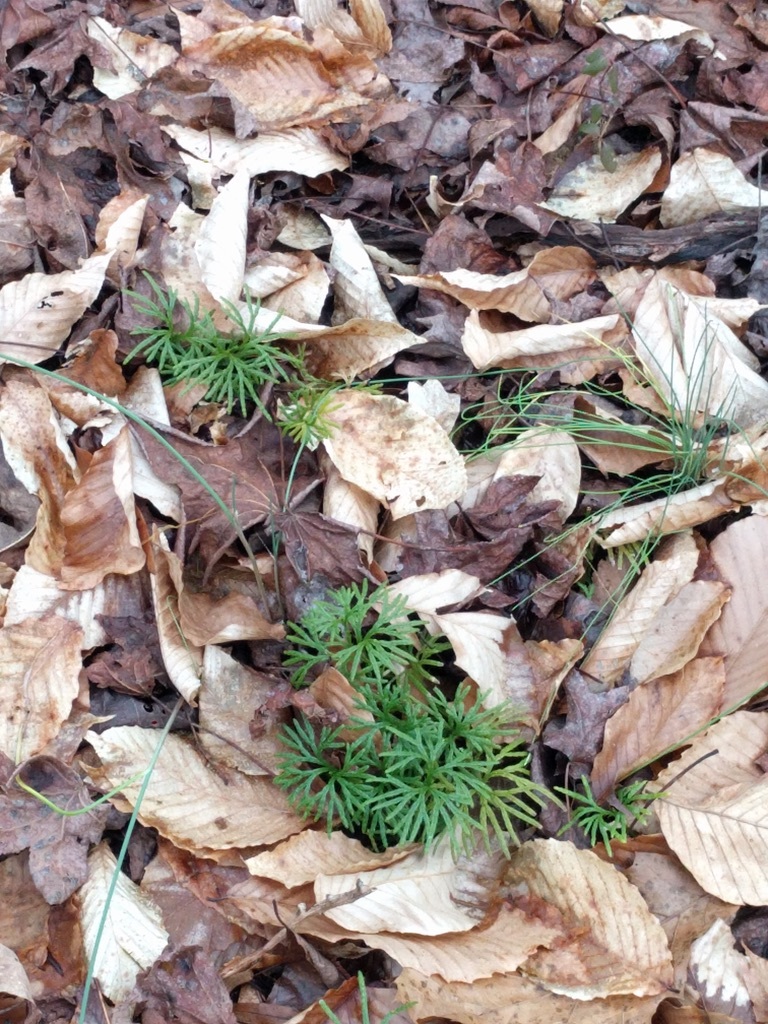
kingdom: Plantae
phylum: Tracheophyta
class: Lycopodiopsida
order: Lycopodiales
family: Lycopodiaceae
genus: Diphasiastrum
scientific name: Diphasiastrum digitatum
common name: Southern running-pine
